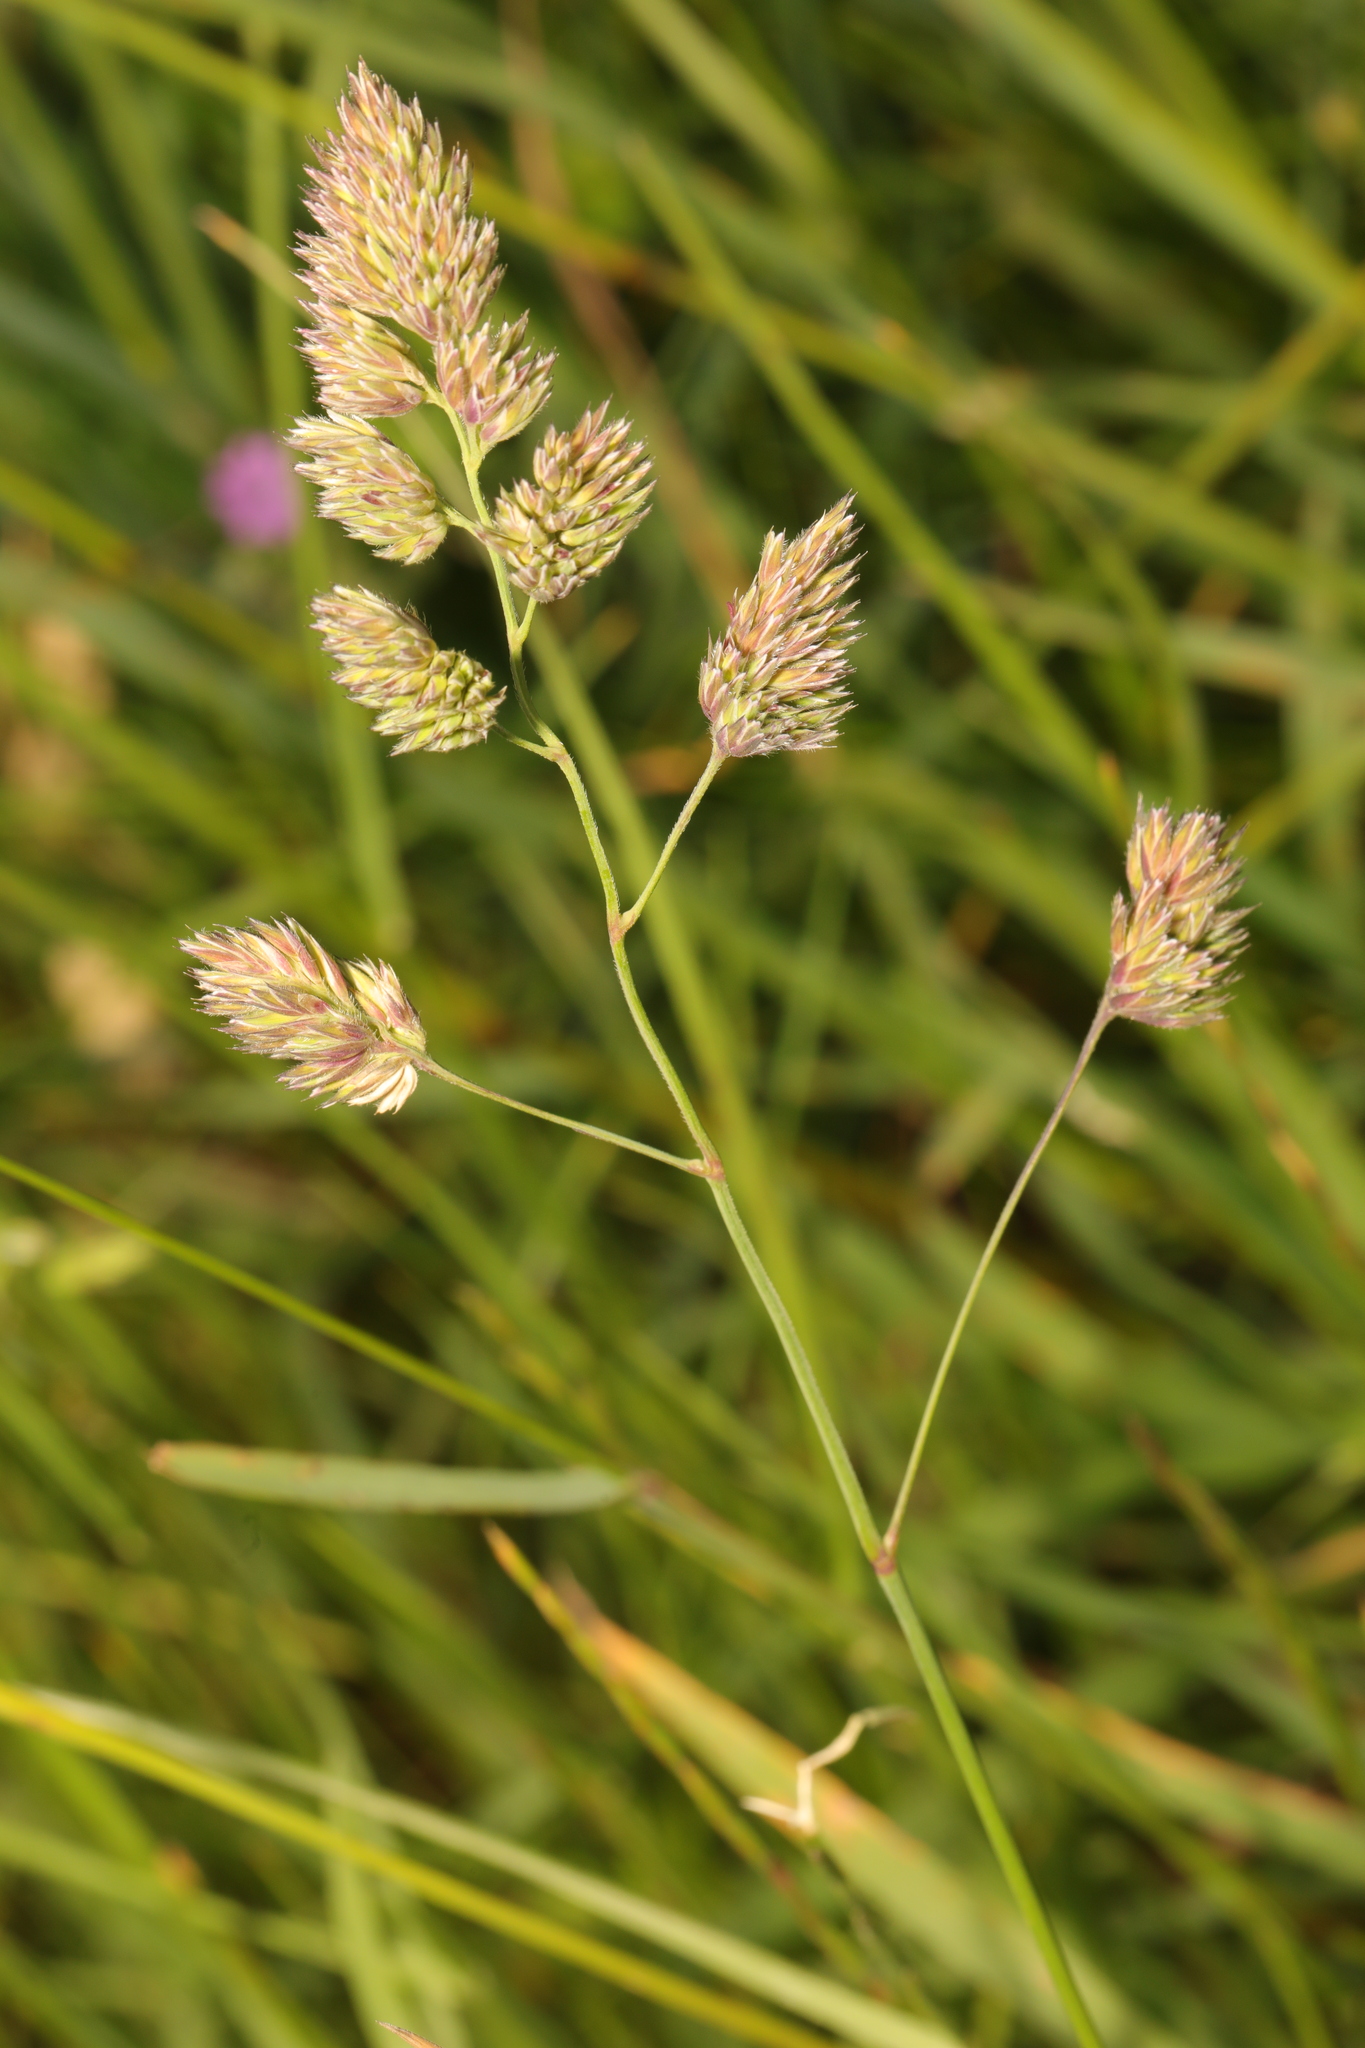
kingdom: Plantae
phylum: Tracheophyta
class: Liliopsida
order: Poales
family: Poaceae
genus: Dactylis
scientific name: Dactylis glomerata
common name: Orchardgrass
